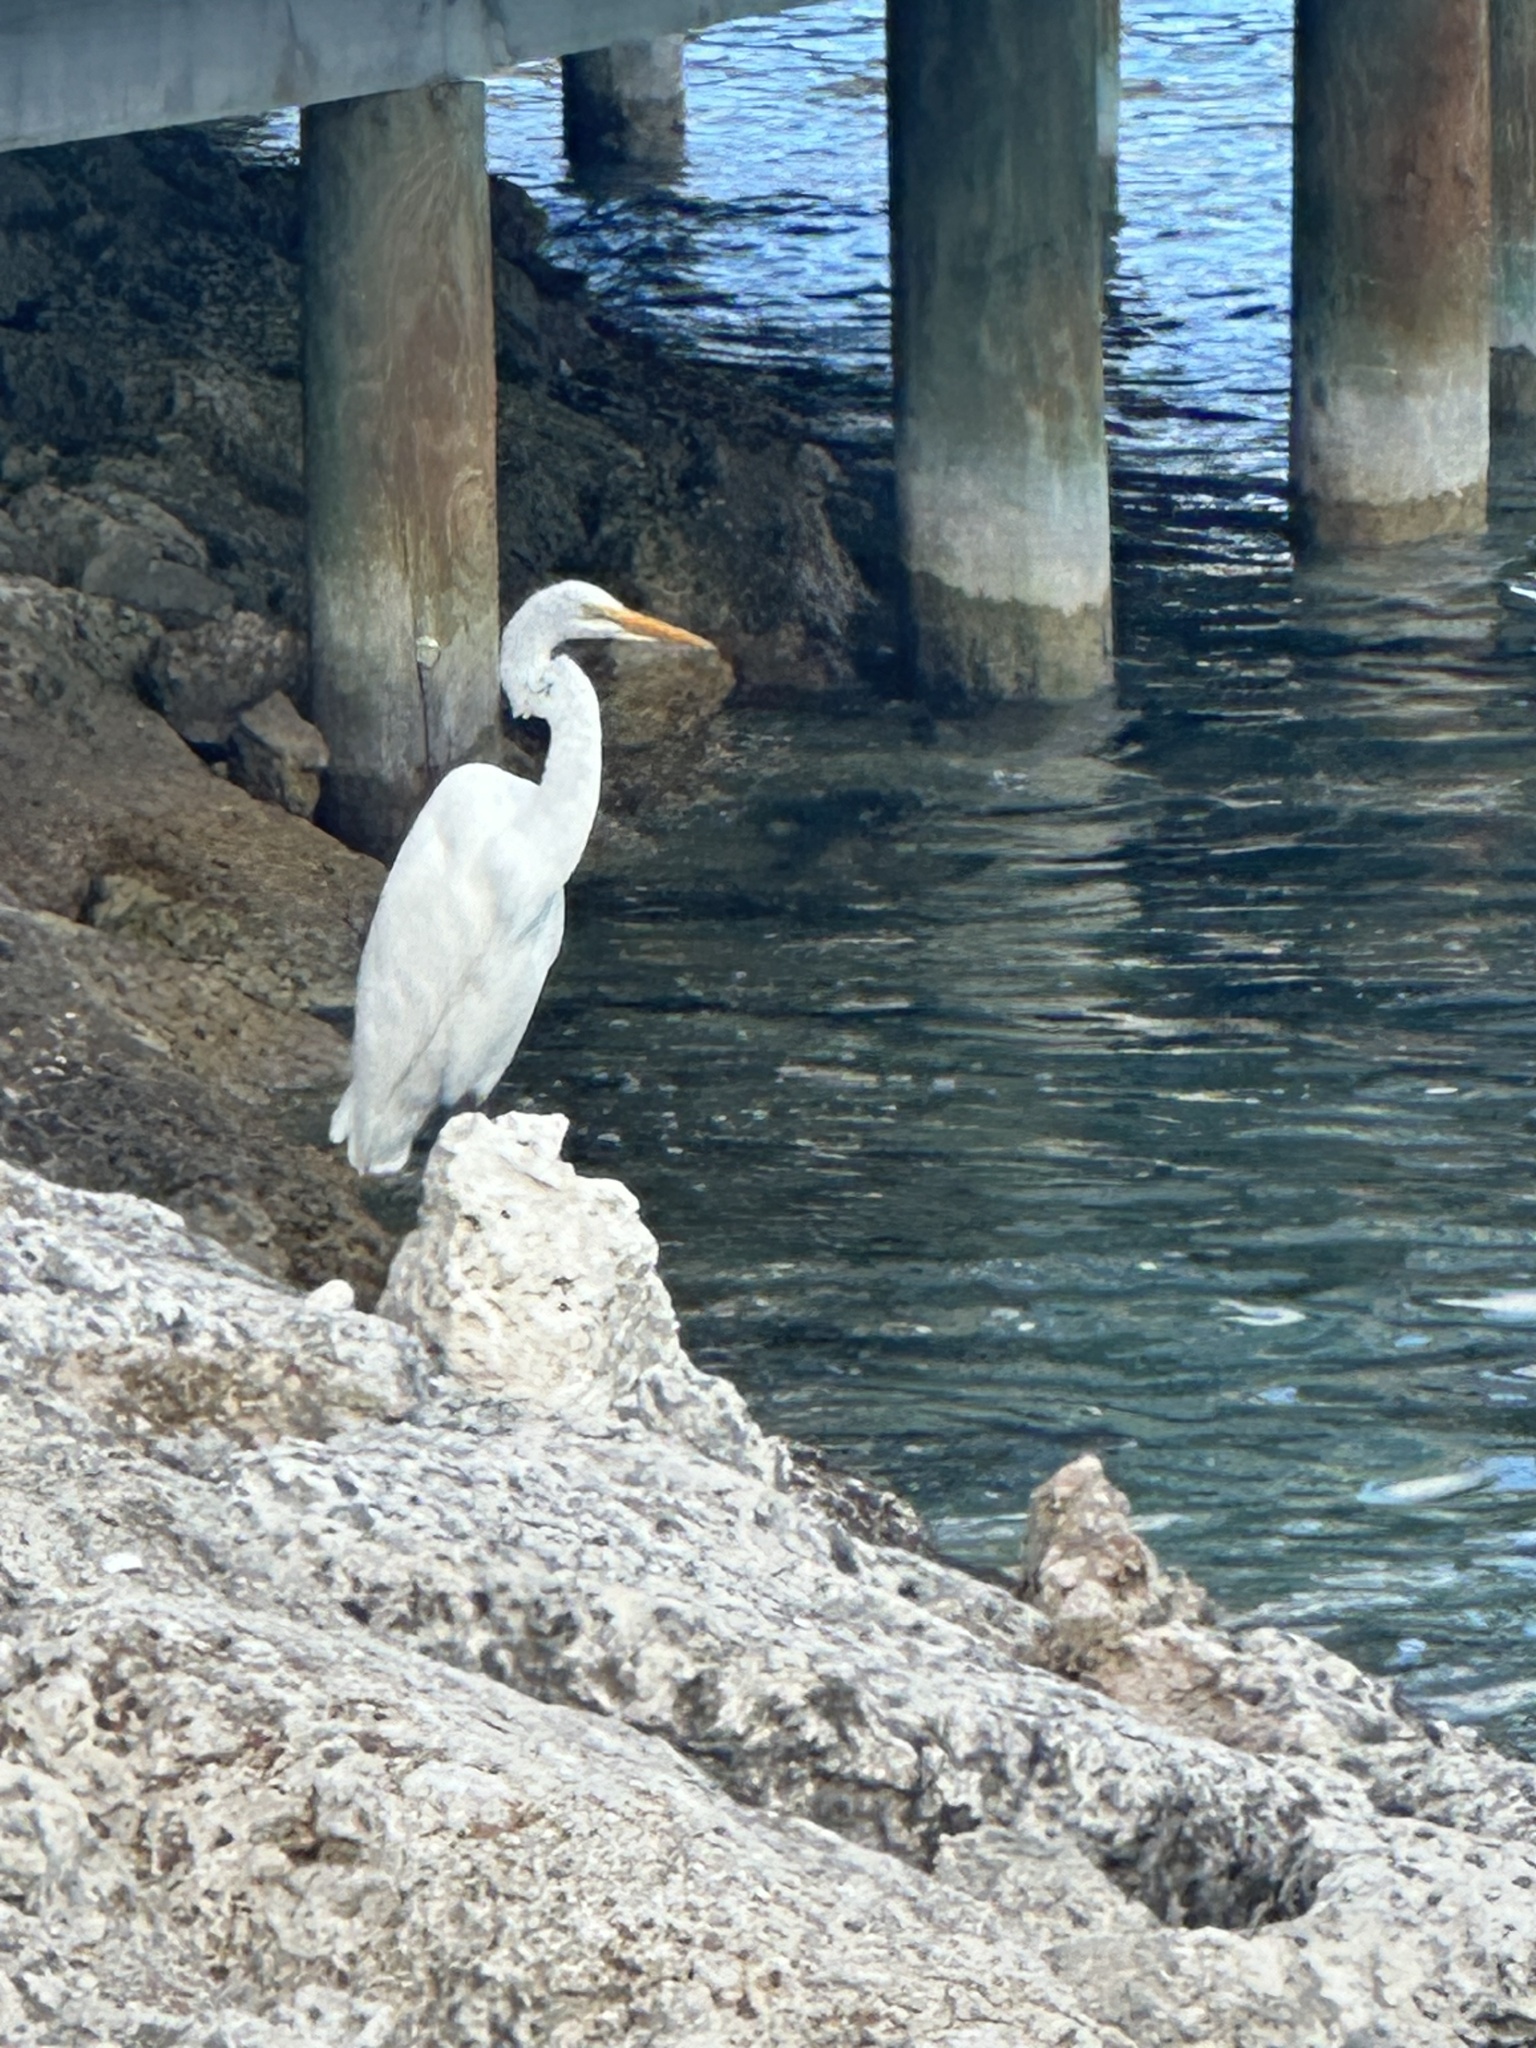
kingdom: Animalia
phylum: Chordata
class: Aves
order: Pelecaniformes
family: Ardeidae
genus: Ardea
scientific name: Ardea alba
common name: Great egret
